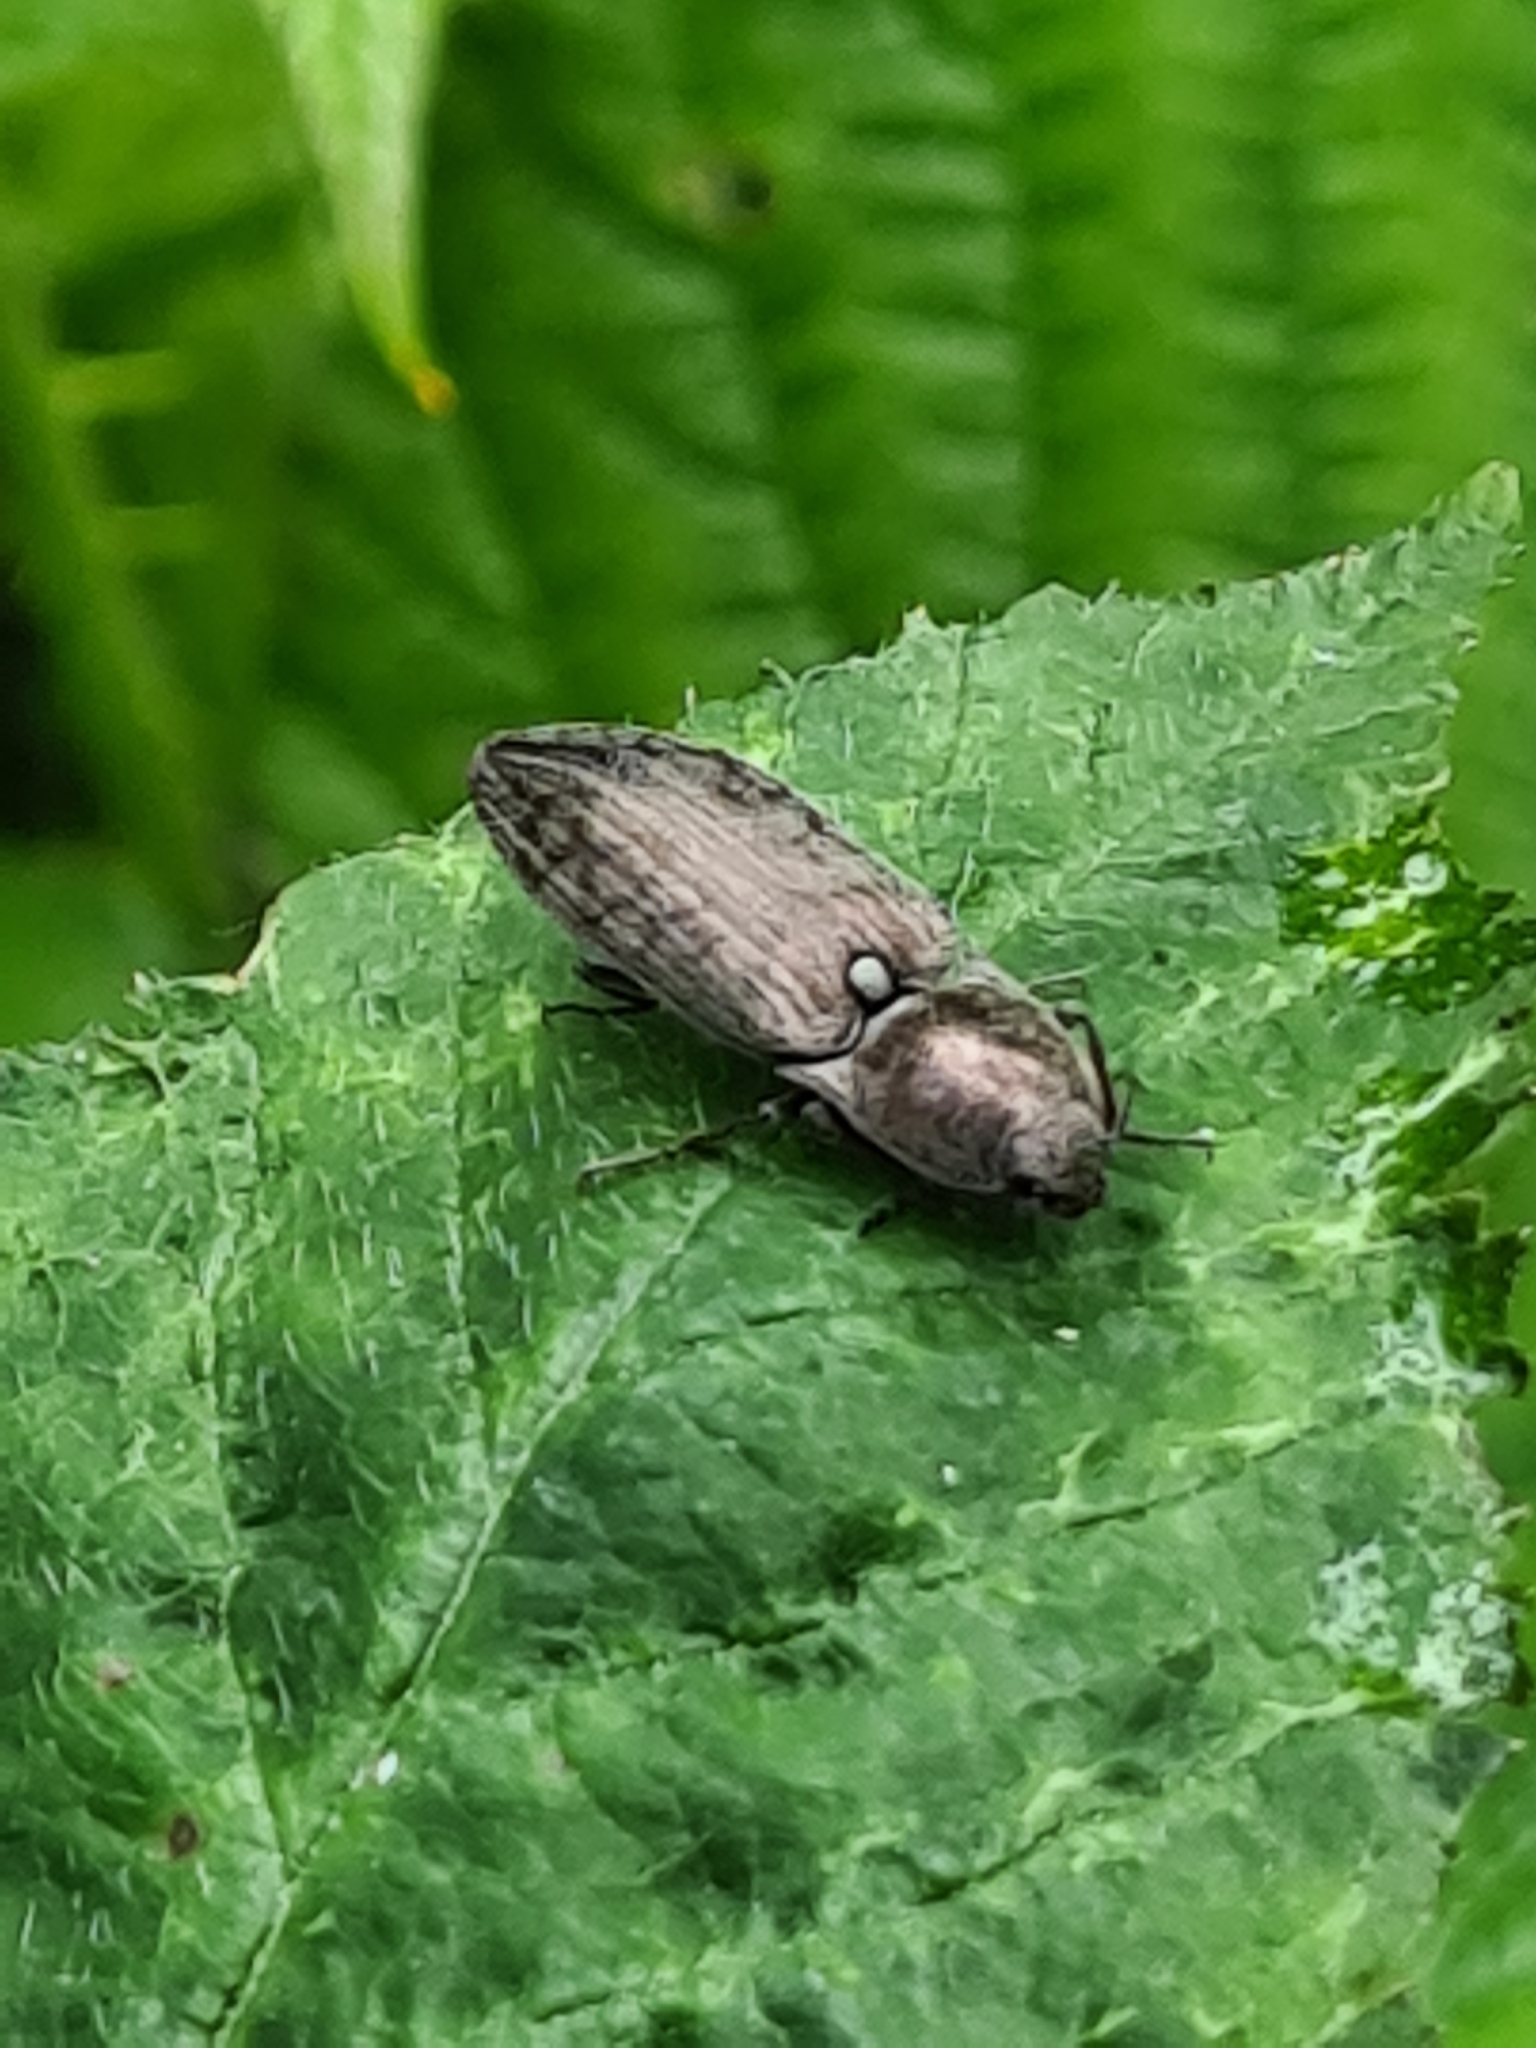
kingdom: Animalia
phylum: Arthropoda
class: Insecta
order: Coleoptera
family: Elateridae
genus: Actenicerus
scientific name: Actenicerus sjaelandicus
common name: Marsh click beetle
